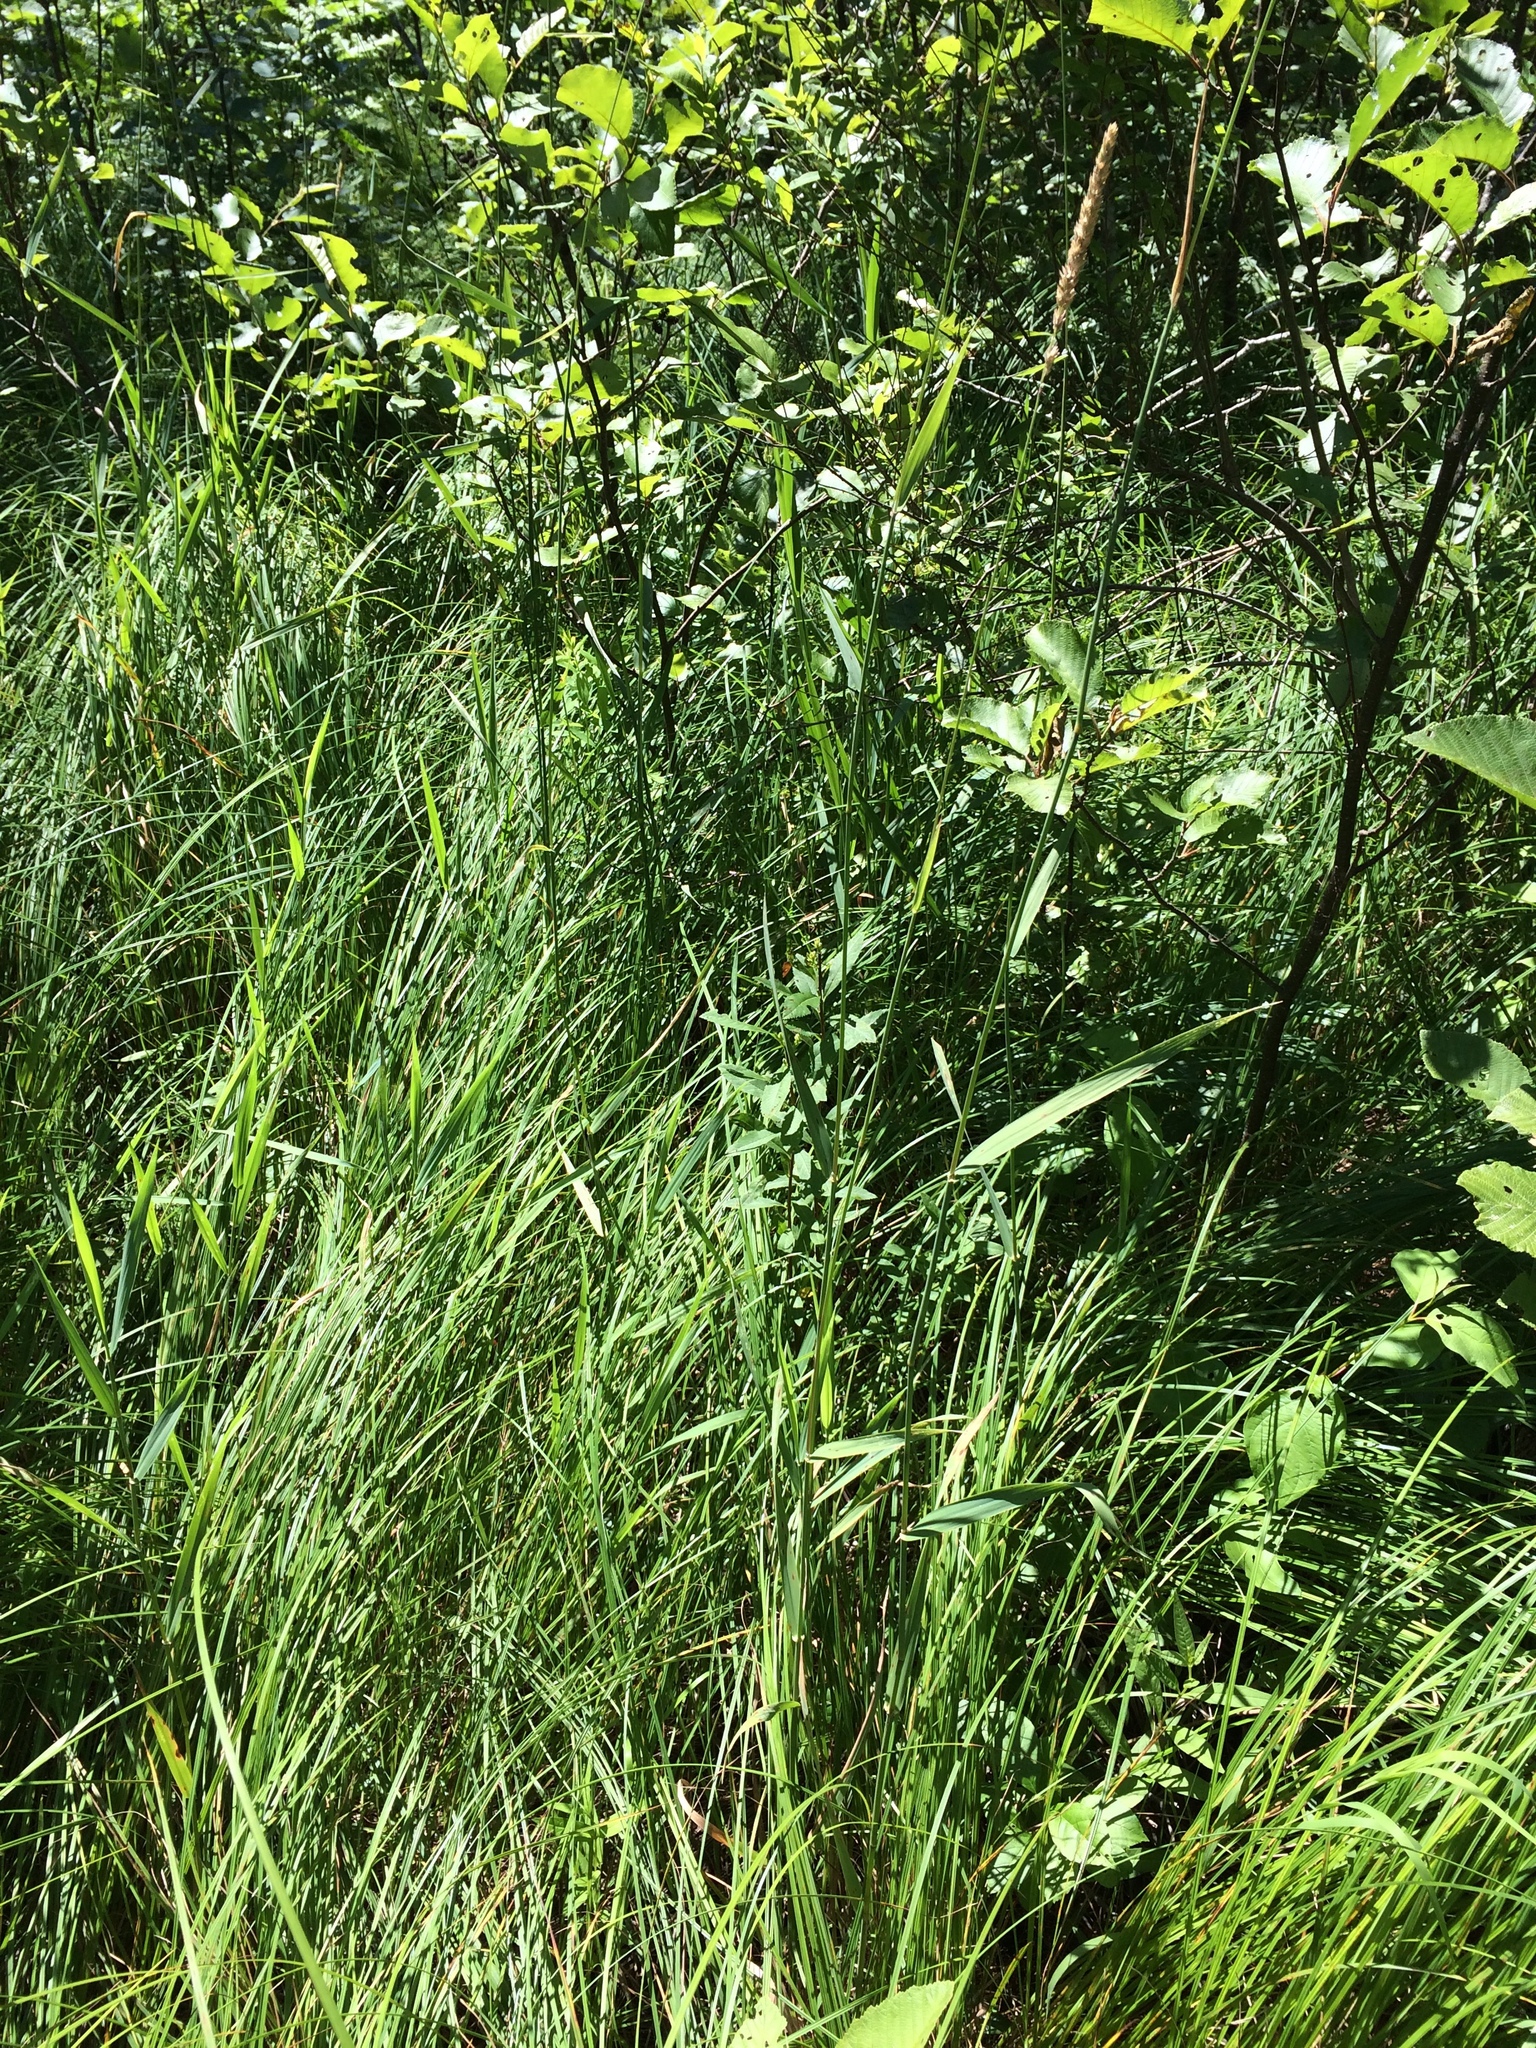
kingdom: Plantae
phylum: Tracheophyta
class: Liliopsida
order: Poales
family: Poaceae
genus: Phalaris
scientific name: Phalaris arundinacea
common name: Reed canary-grass
